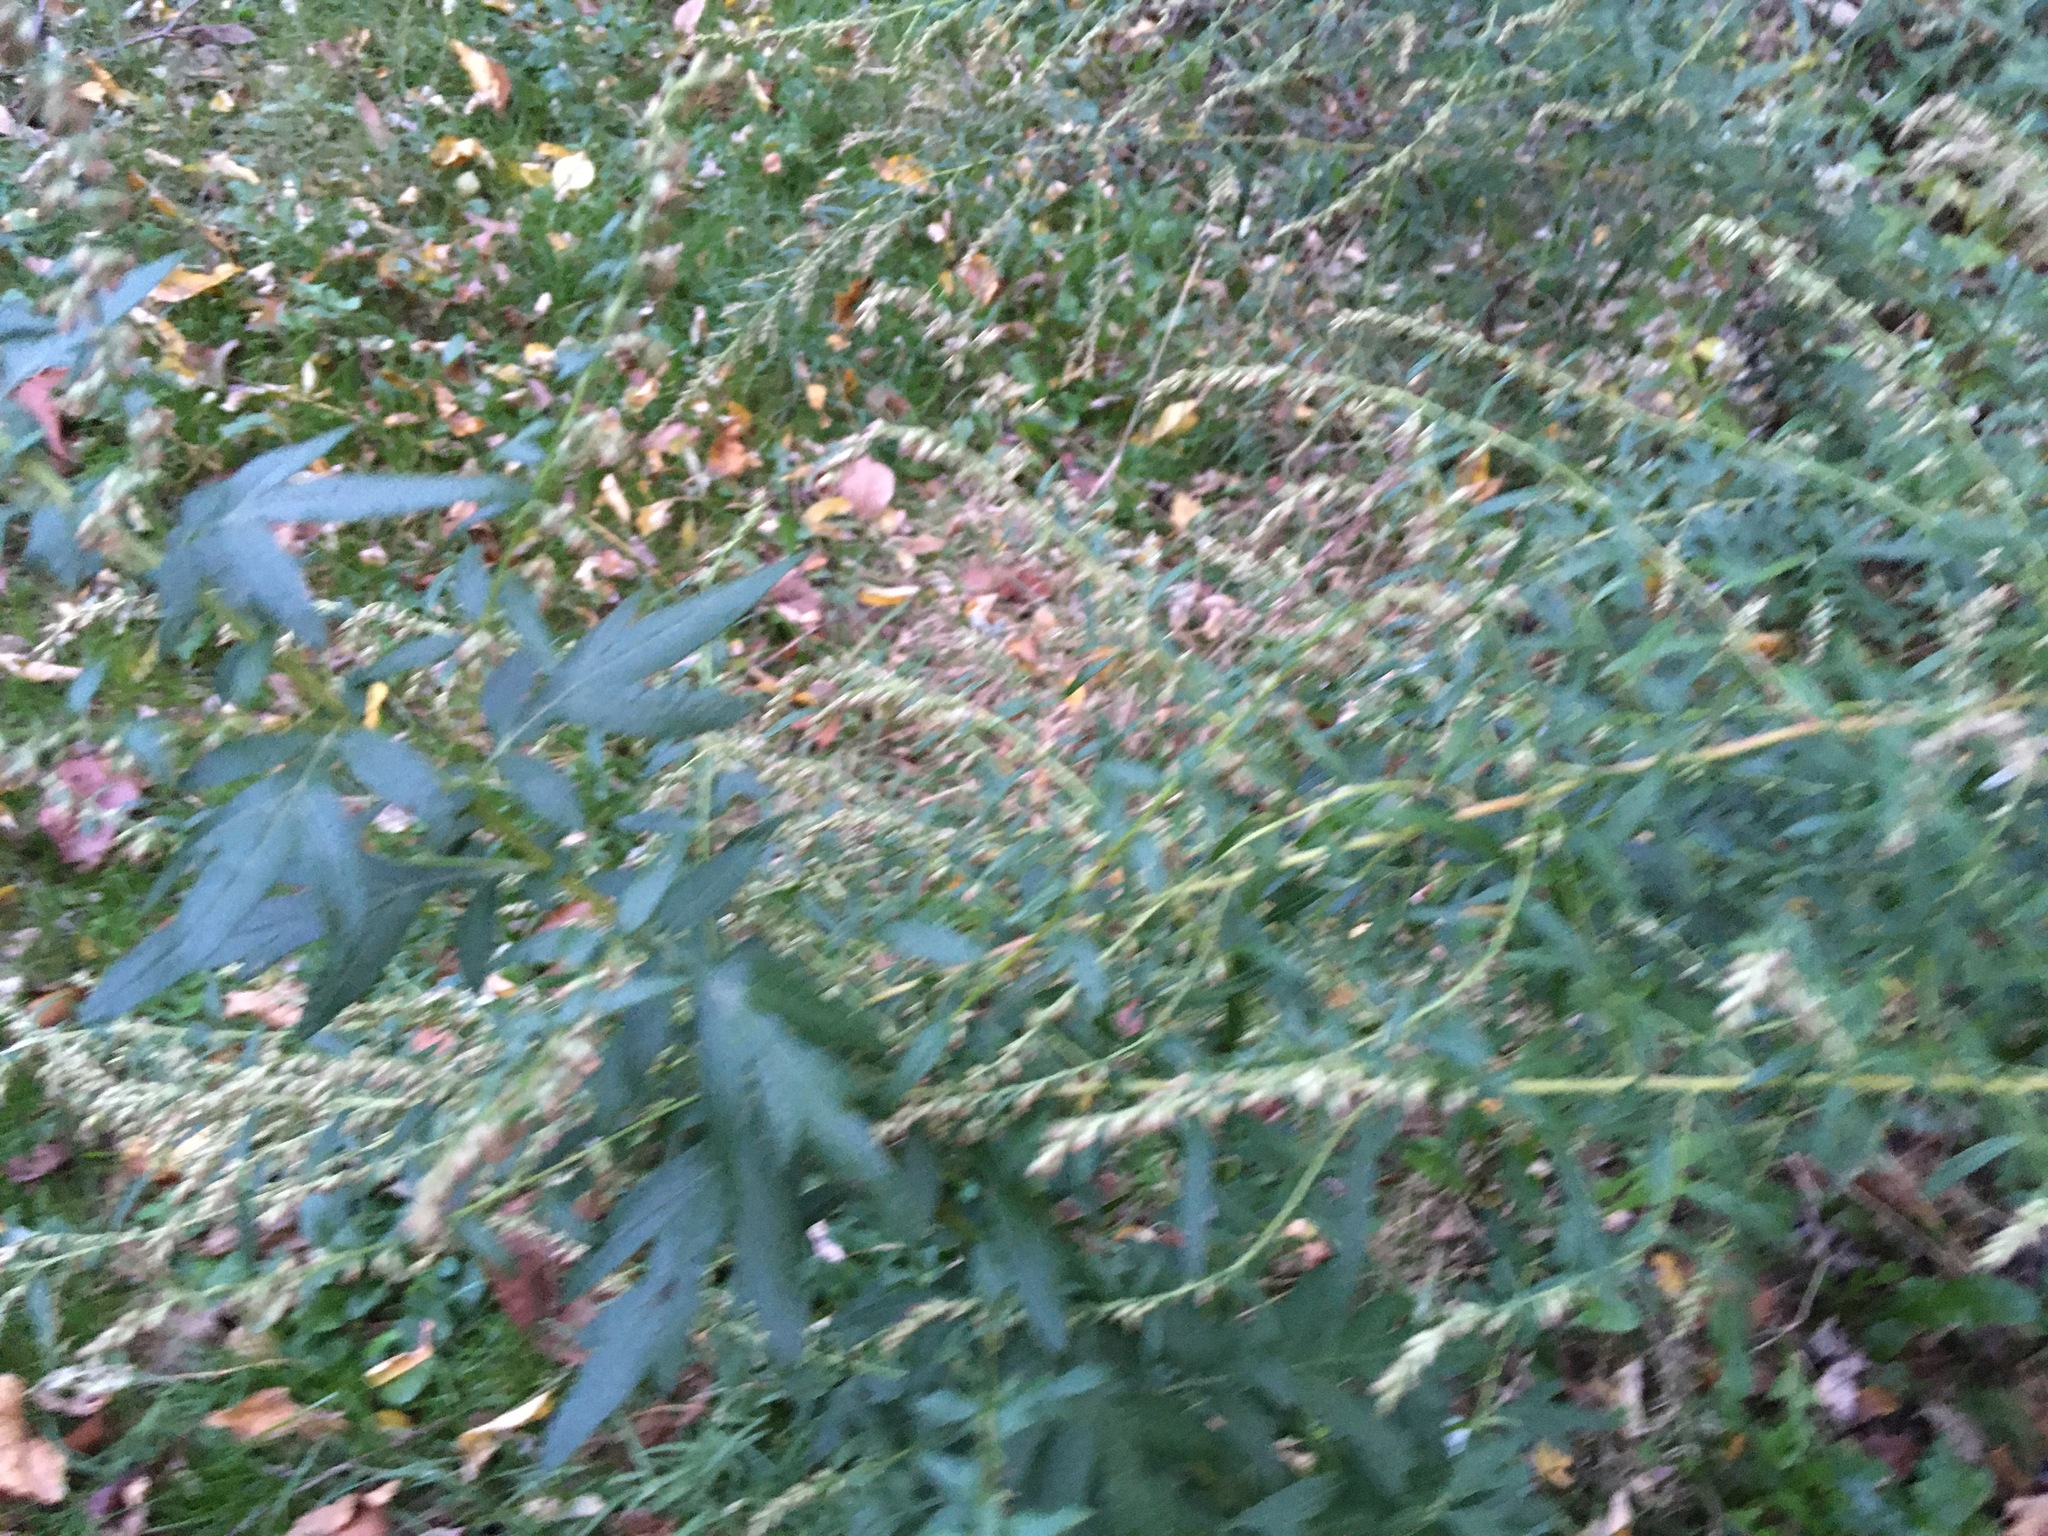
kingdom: Plantae
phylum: Tracheophyta
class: Magnoliopsida
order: Asterales
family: Asteraceae
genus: Artemisia
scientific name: Artemisia vulgaris
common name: Mugwort
